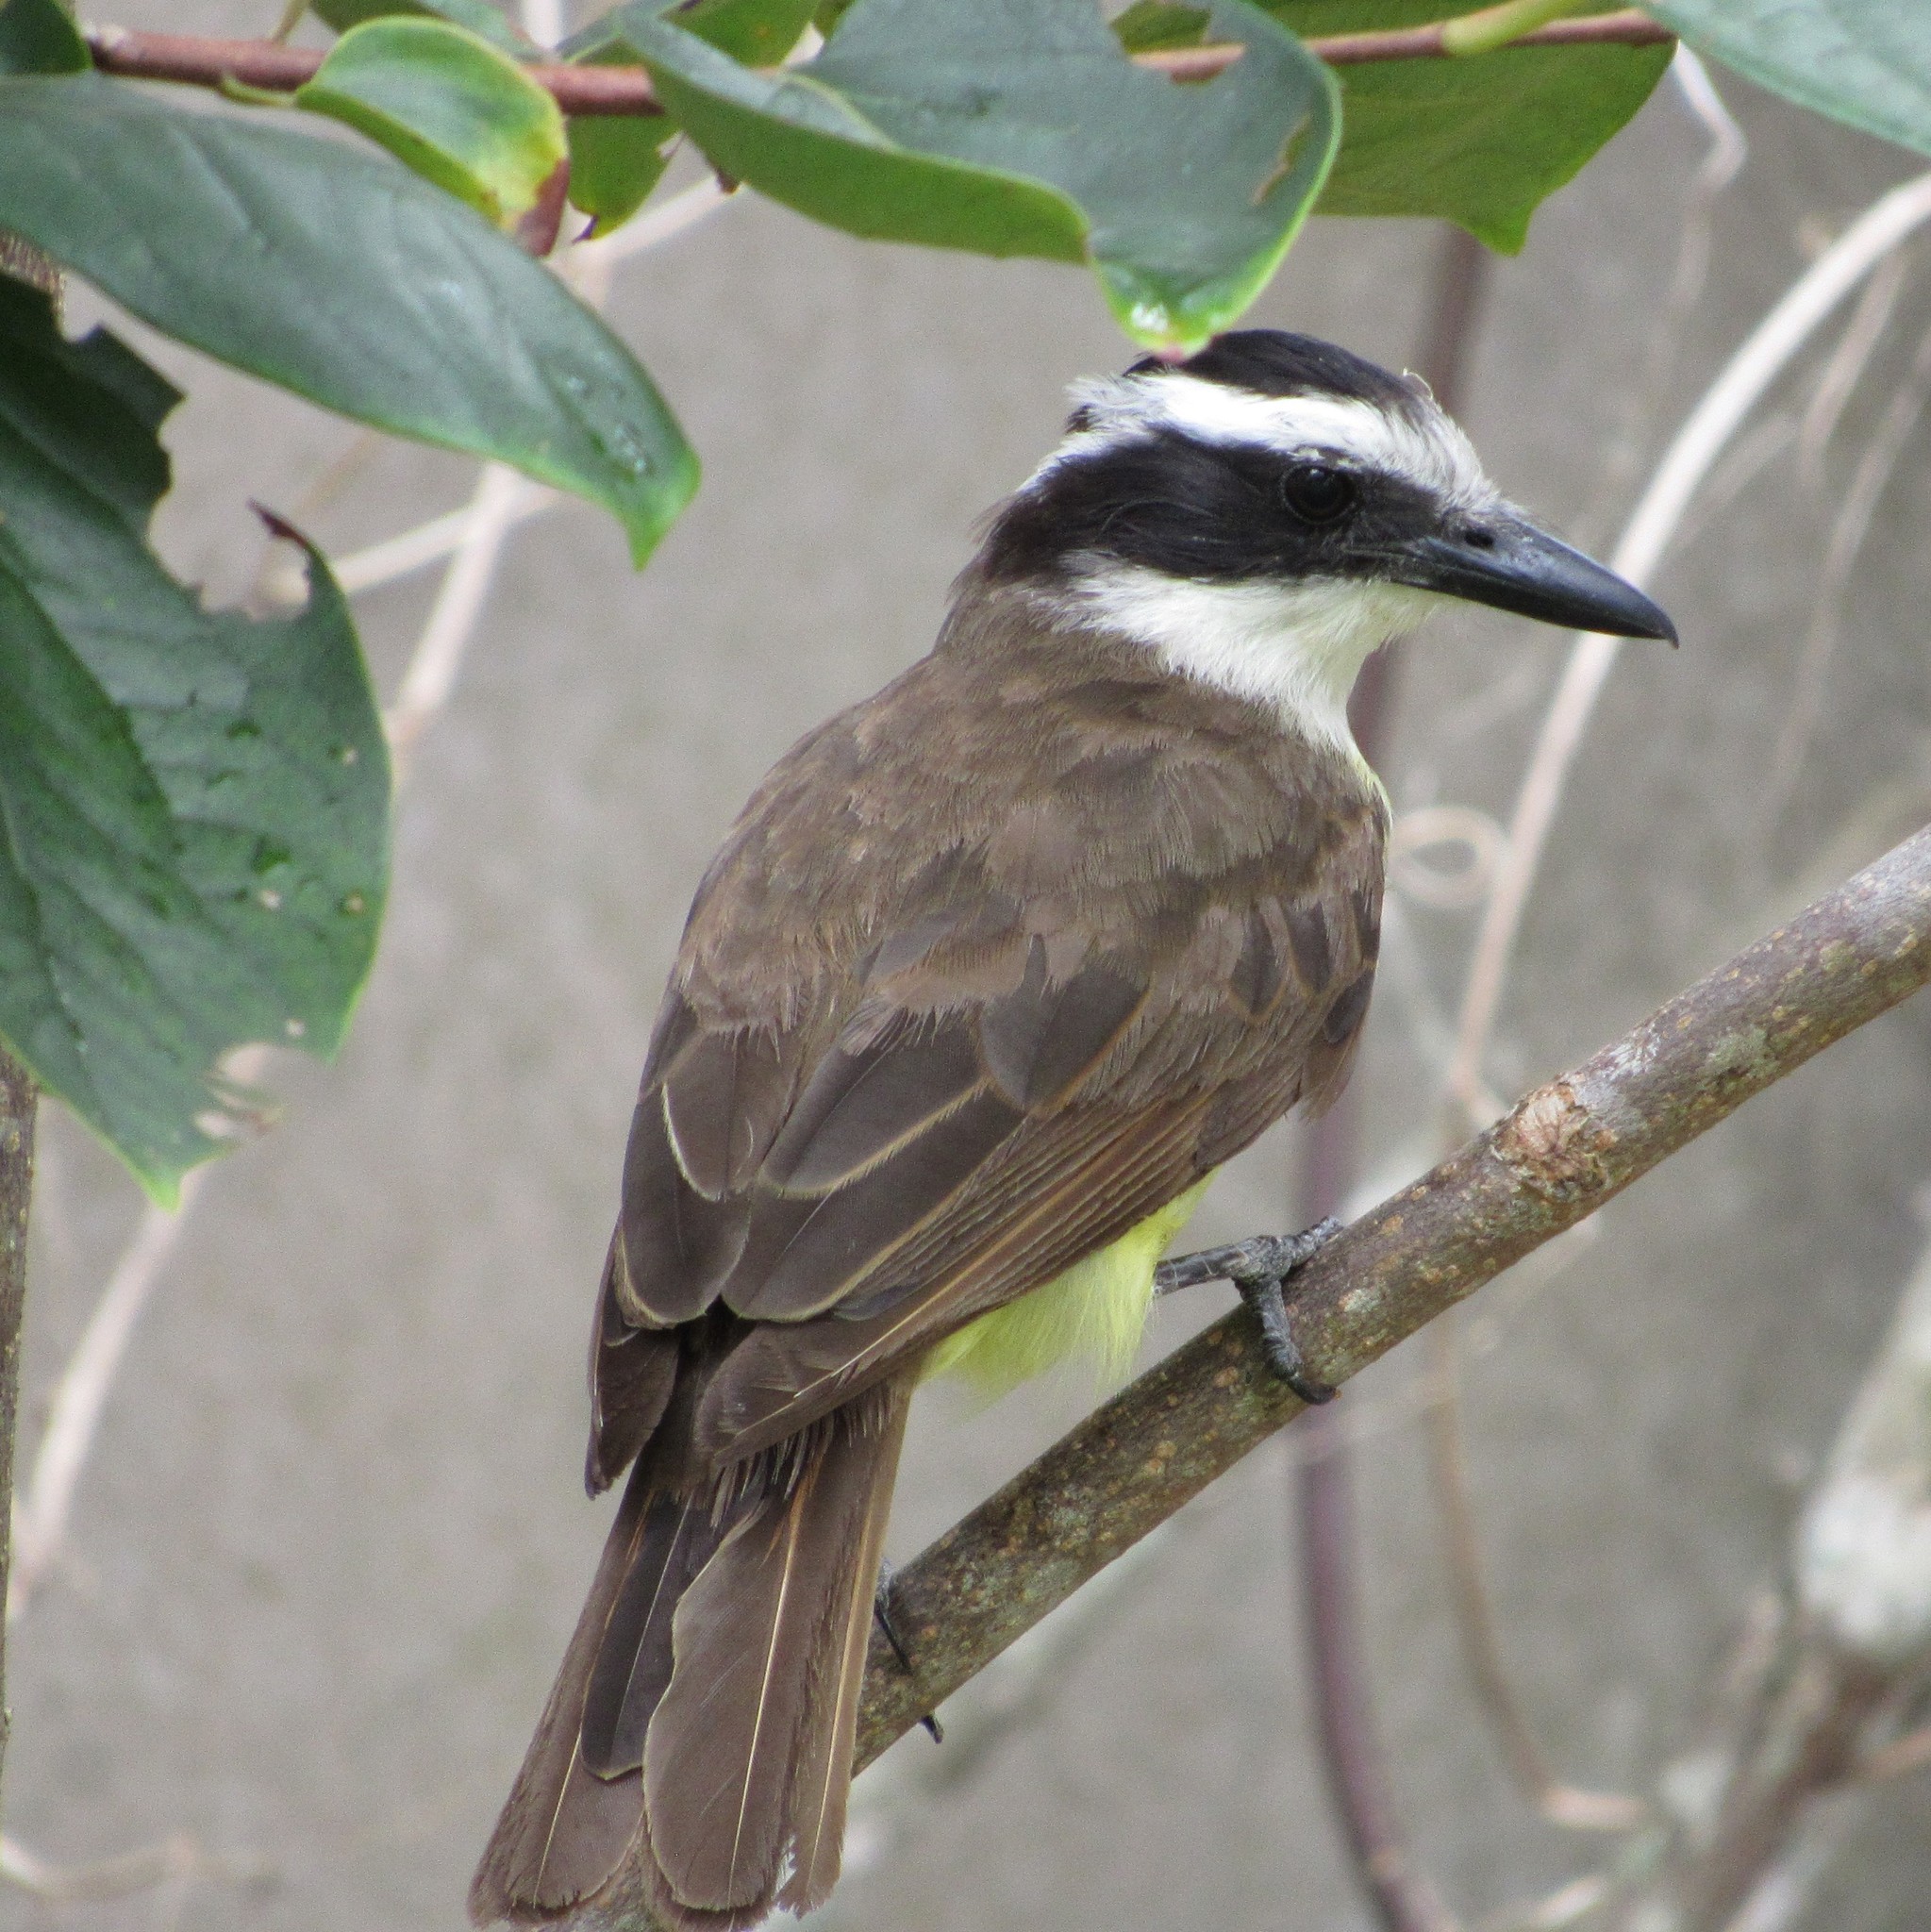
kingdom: Animalia
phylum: Chordata
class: Aves
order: Passeriformes
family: Tyrannidae
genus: Pitangus
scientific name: Pitangus sulphuratus
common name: Great kiskadee
